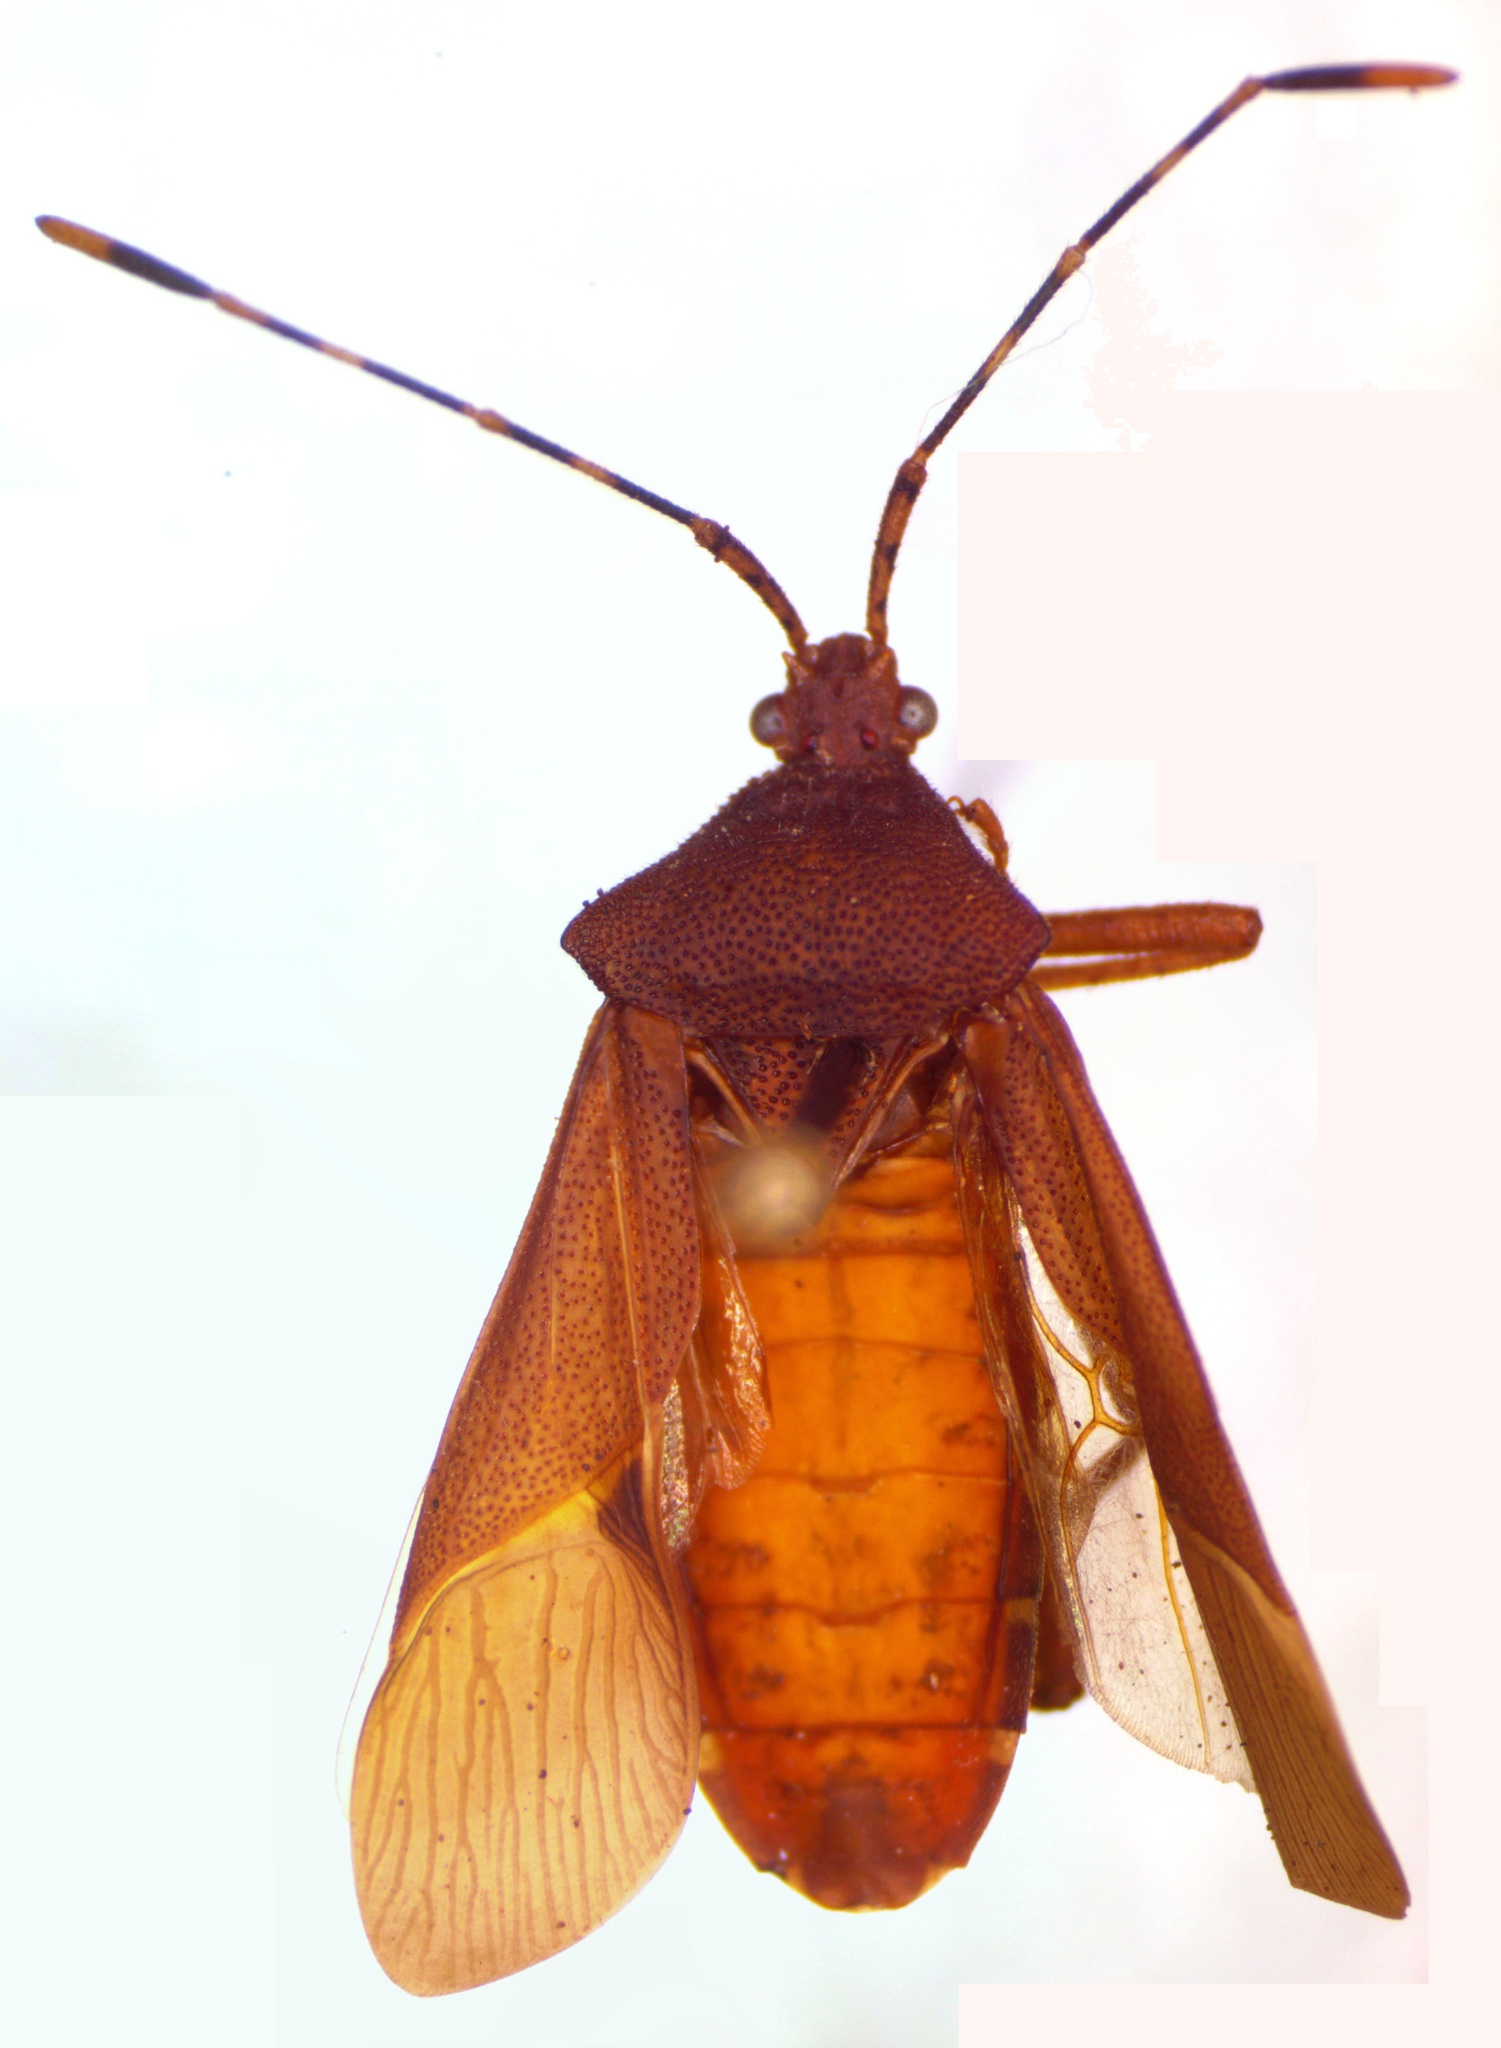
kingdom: Animalia
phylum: Arthropoda
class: Insecta
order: Hemiptera
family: Coreidae
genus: Anasa
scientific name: Anasa bellator
